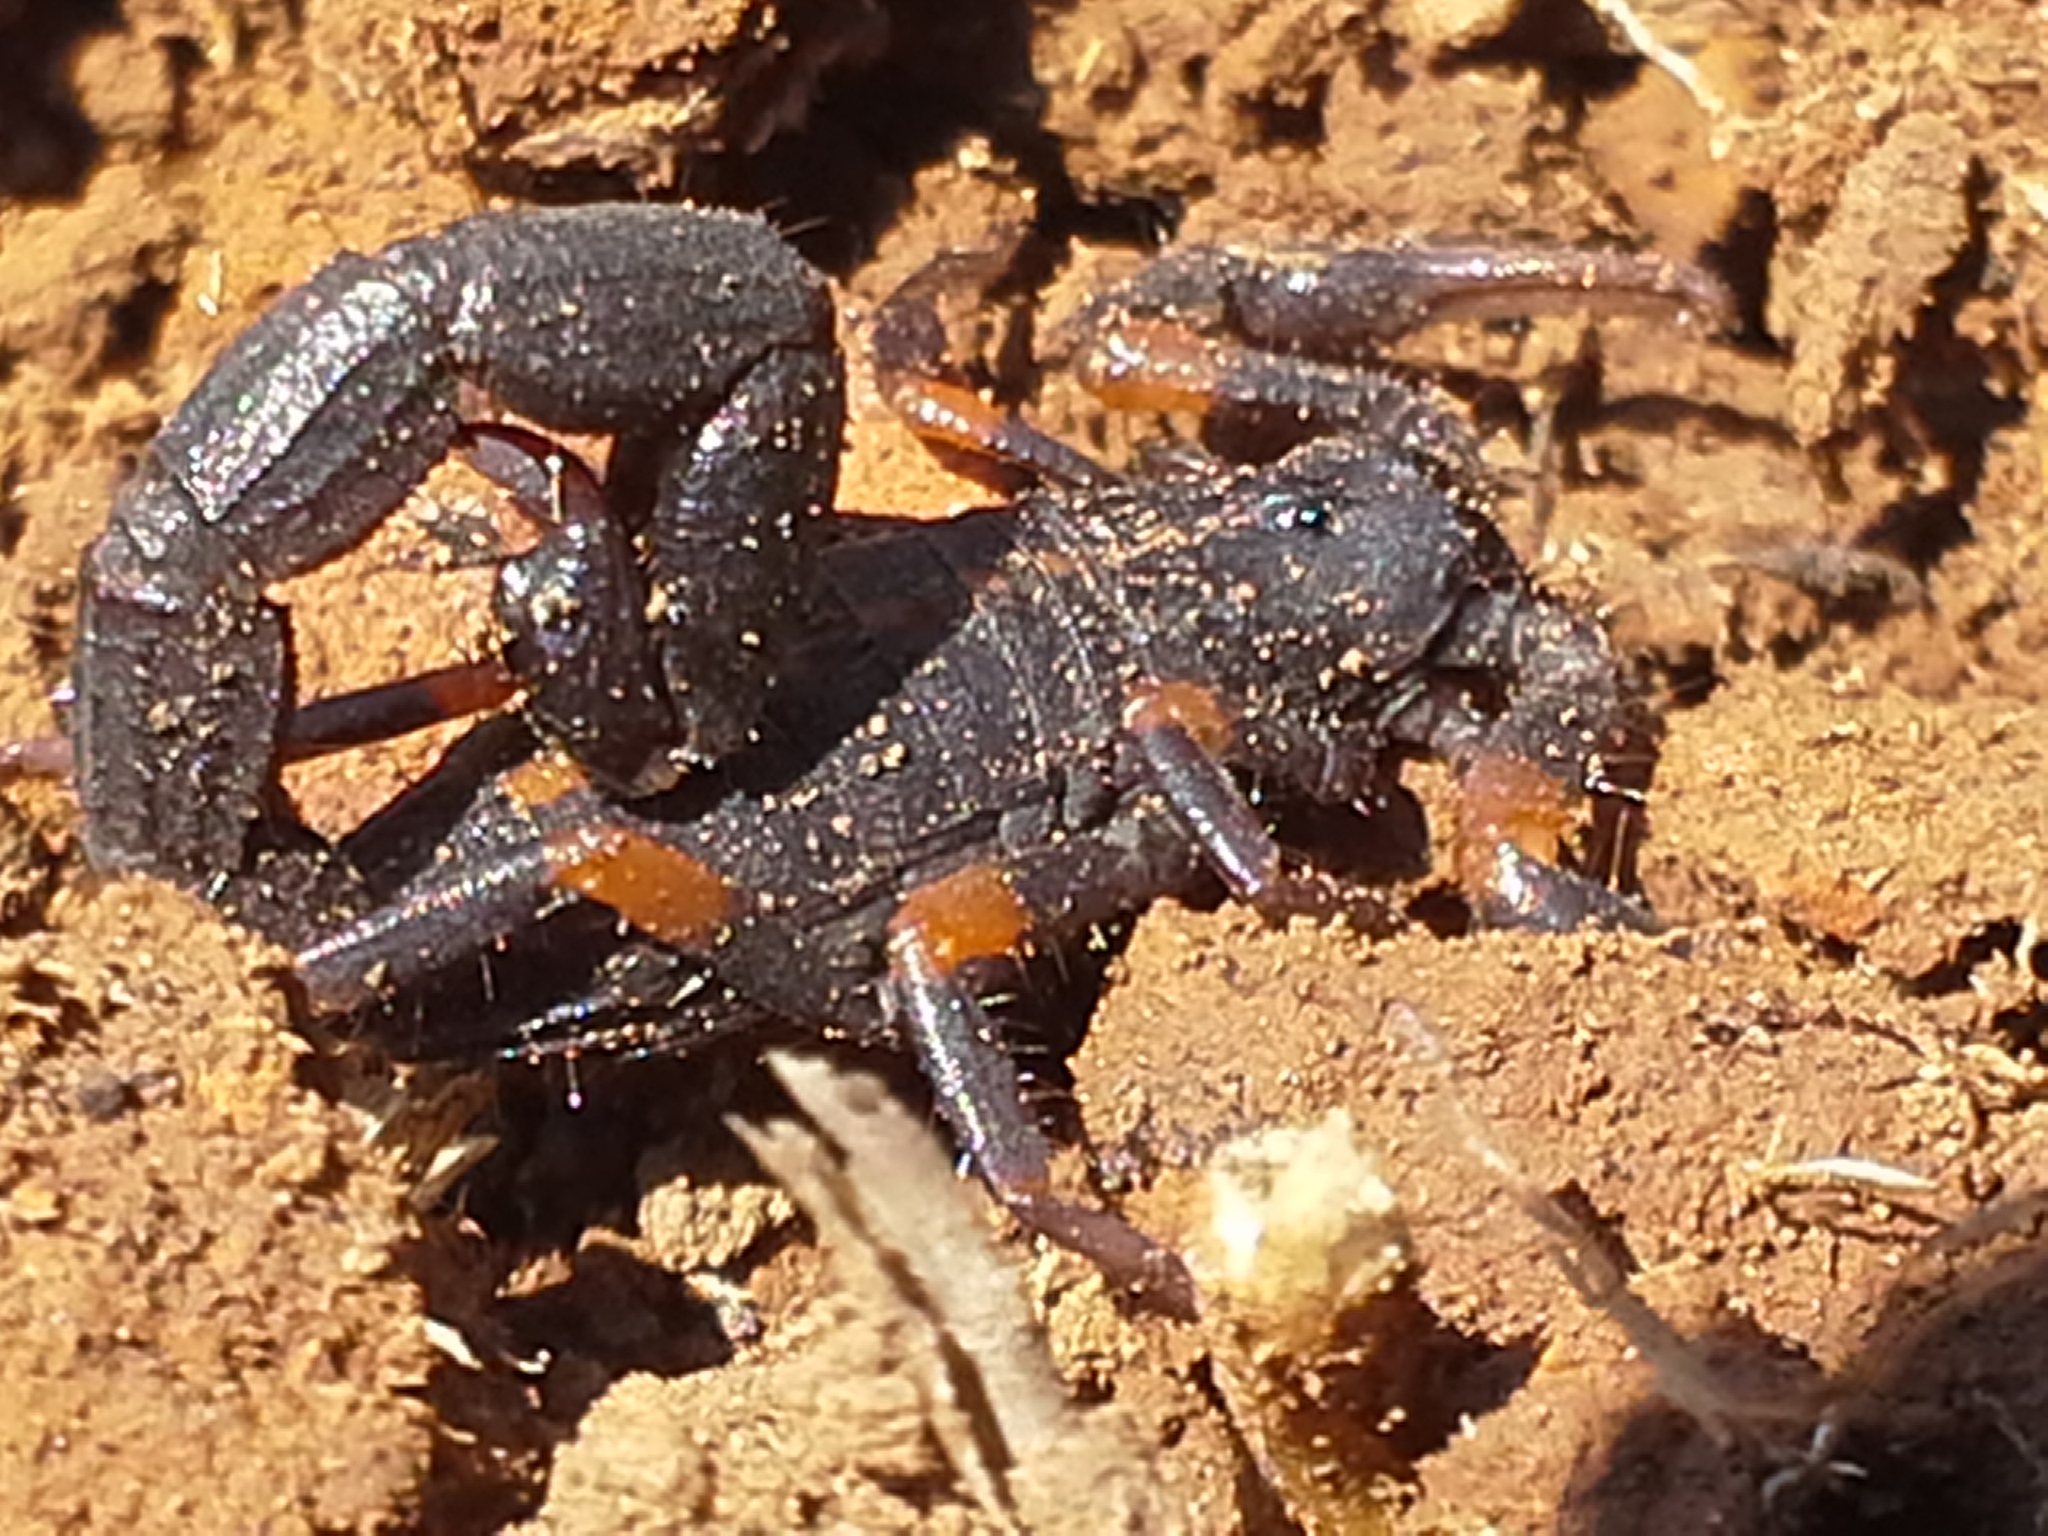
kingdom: Animalia
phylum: Arthropoda
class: Arachnida
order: Scorpiones
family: Buthidae
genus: Uroplectes
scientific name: Uroplectes triangulifer
